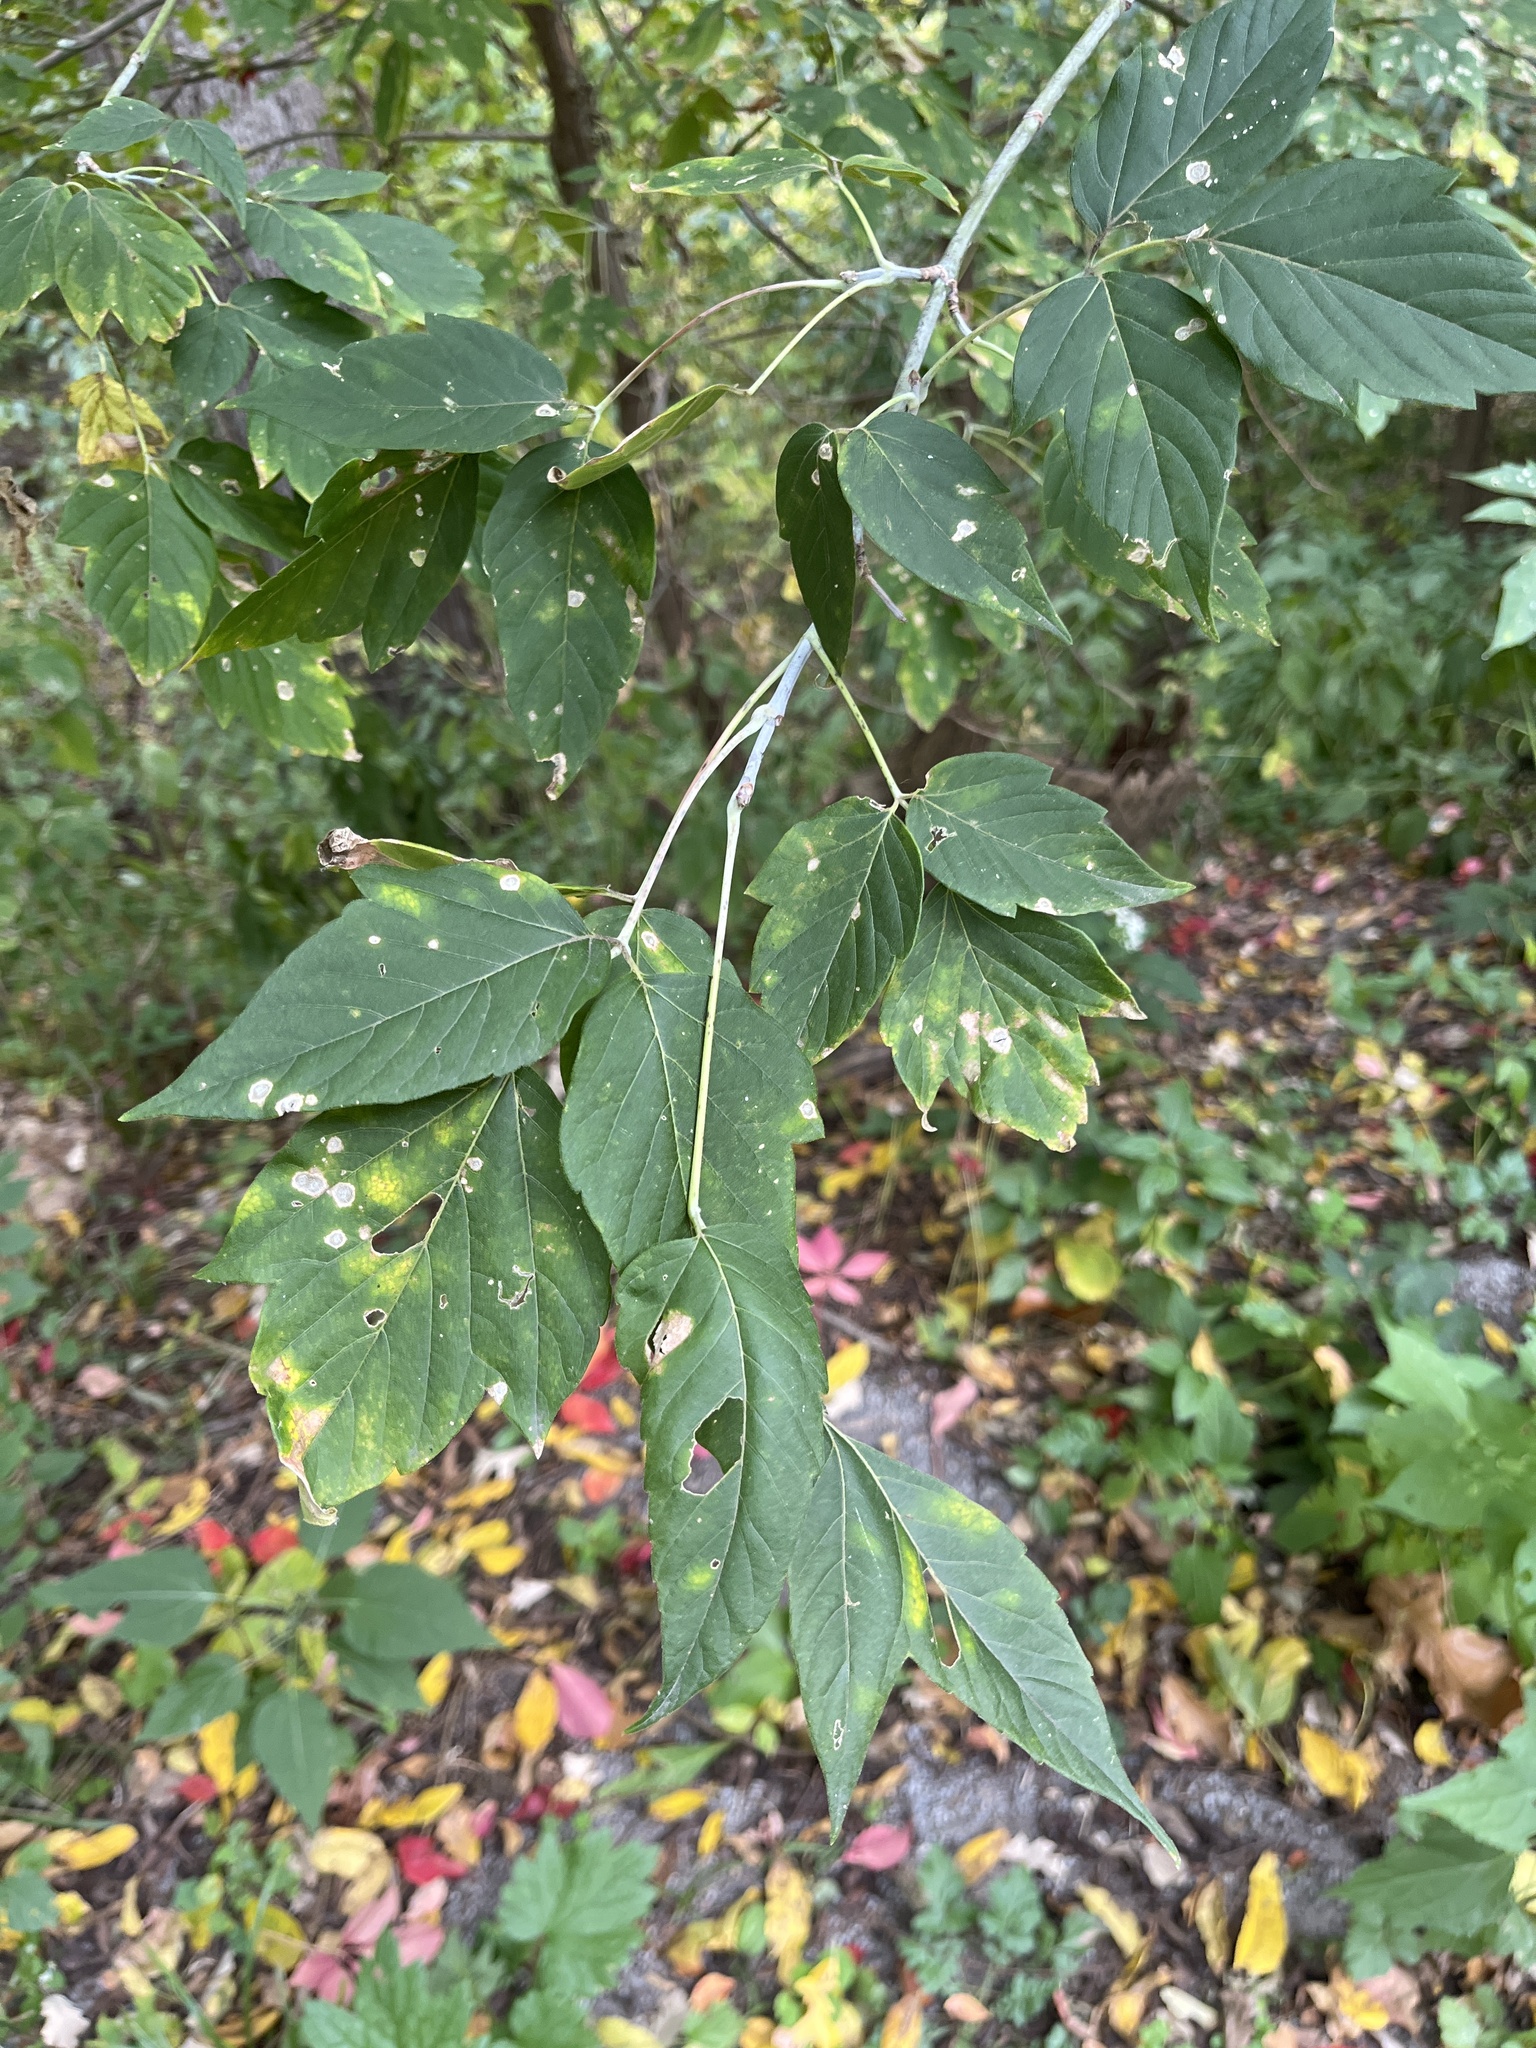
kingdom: Plantae
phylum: Tracheophyta
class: Magnoliopsida
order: Sapindales
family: Sapindaceae
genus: Acer
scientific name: Acer negundo
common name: Ashleaf maple
